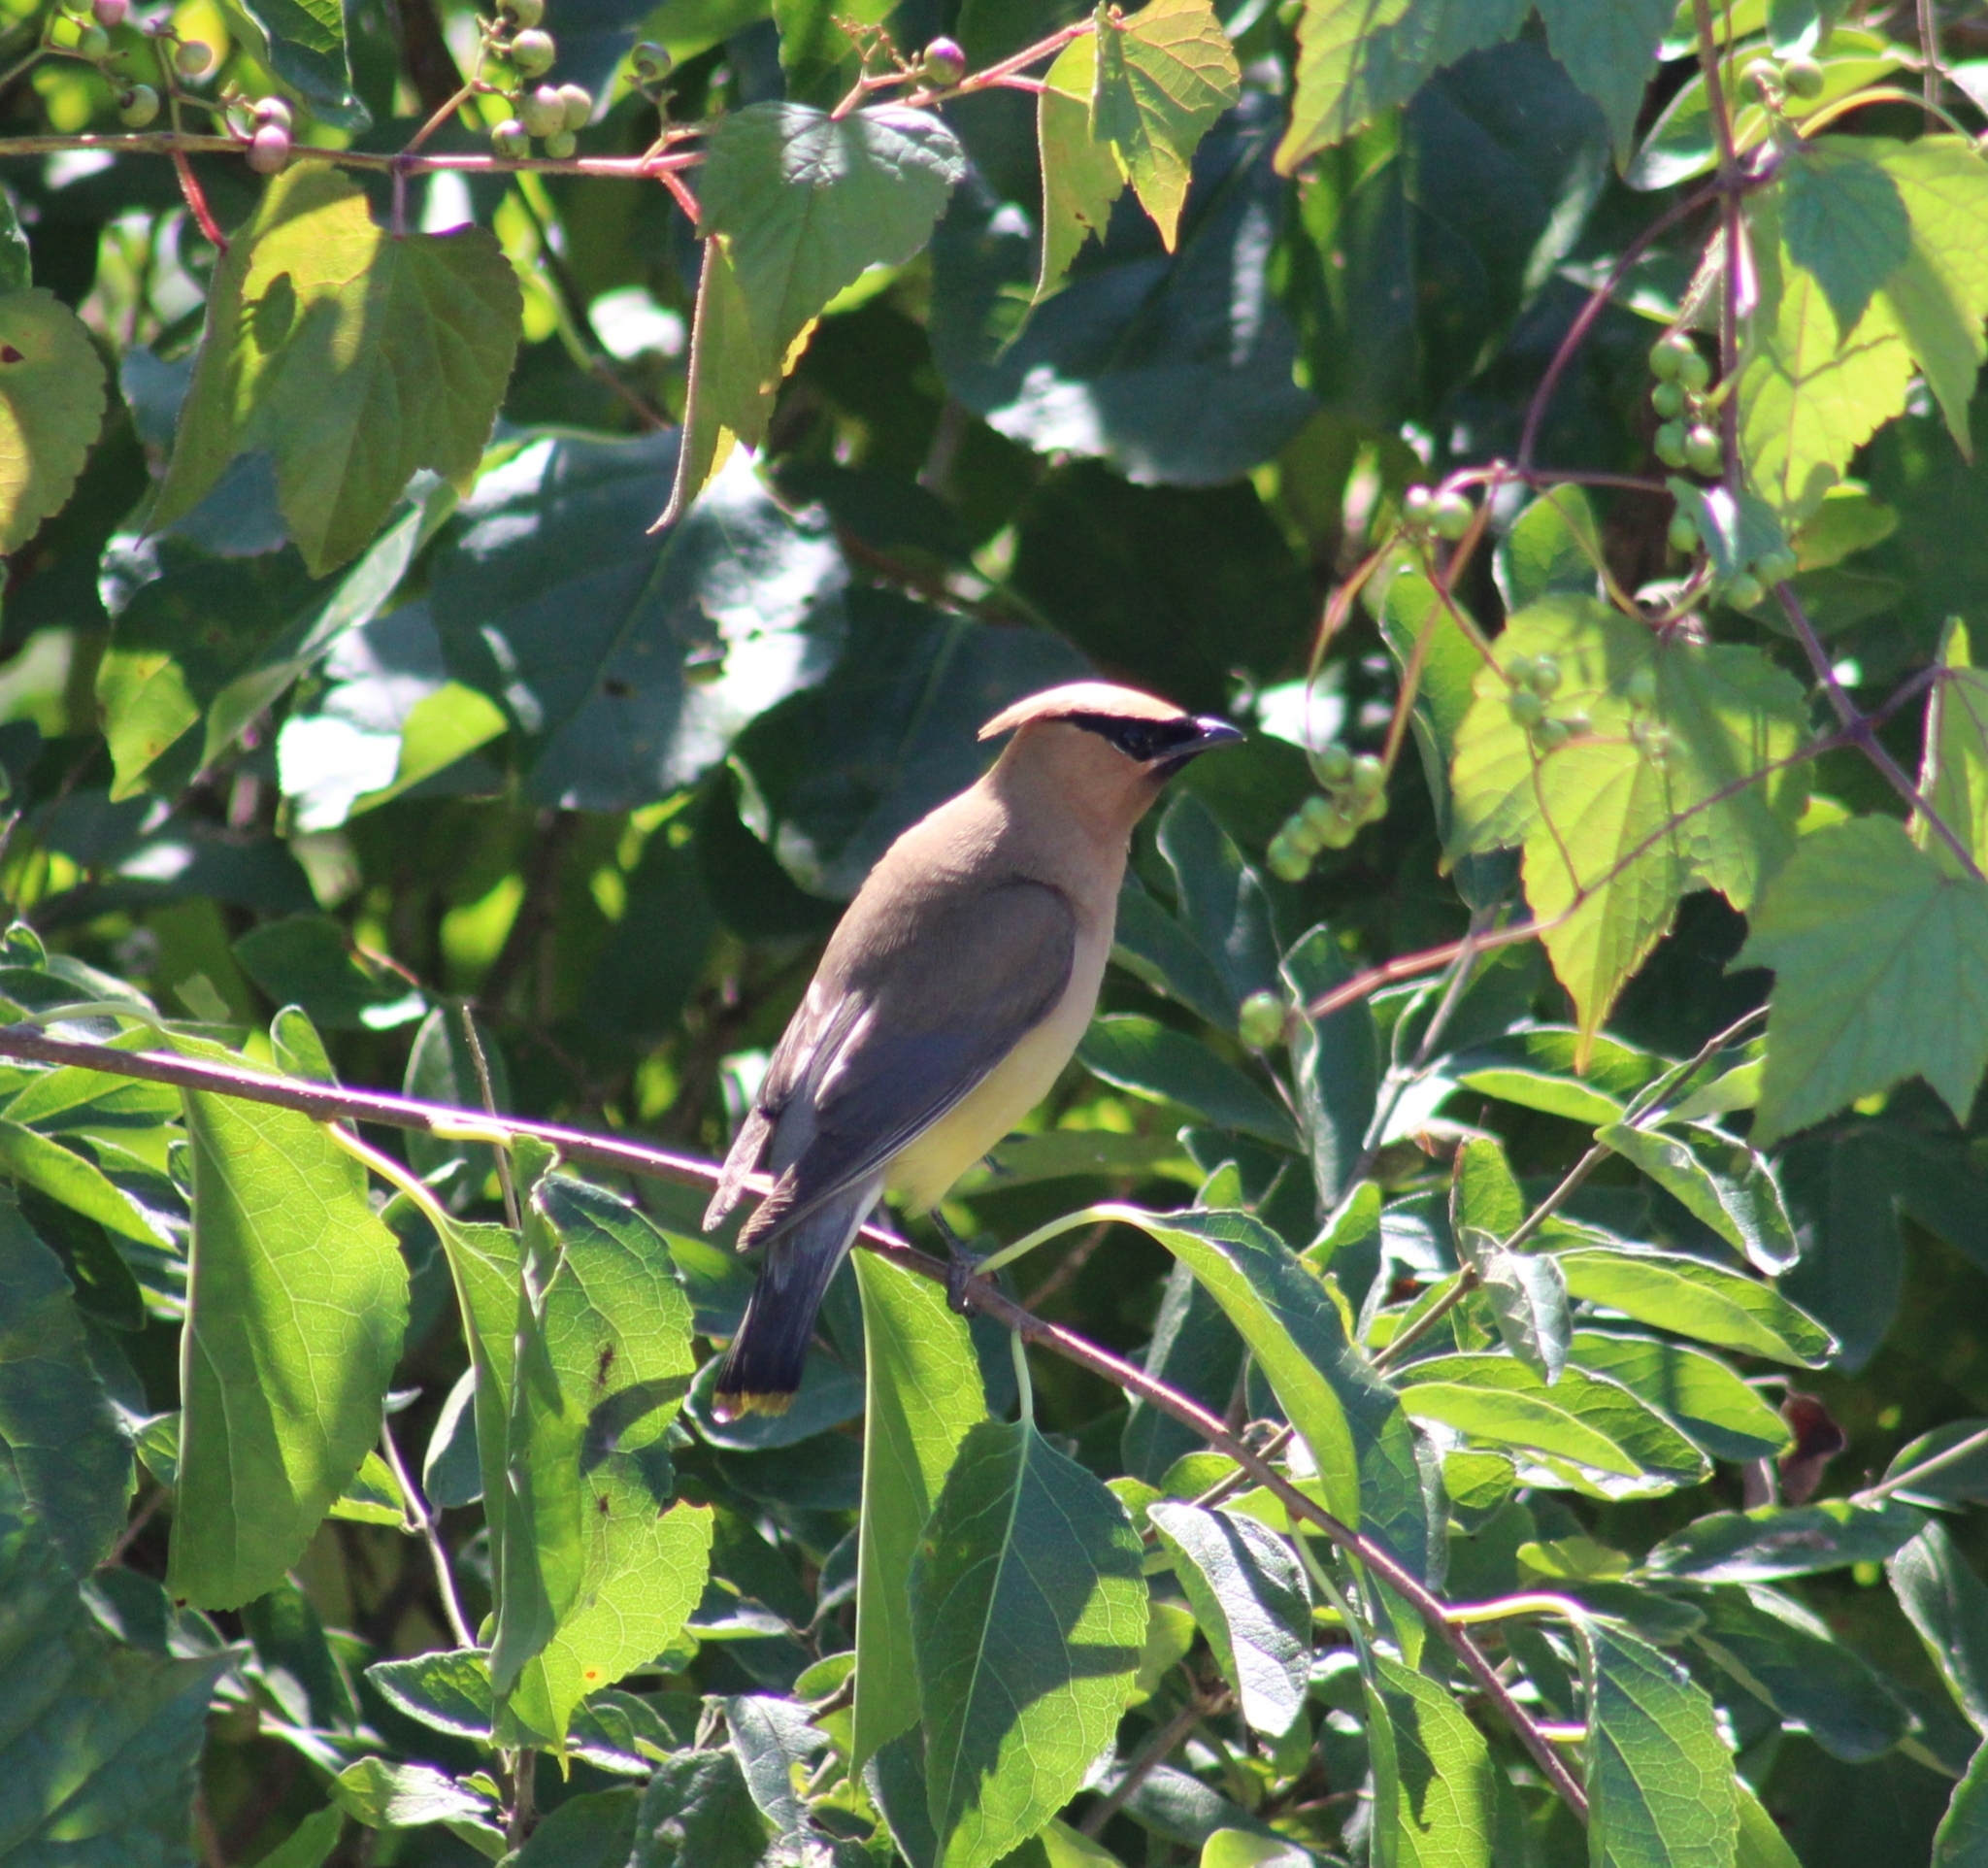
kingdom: Animalia
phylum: Chordata
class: Aves
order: Passeriformes
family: Bombycillidae
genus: Bombycilla
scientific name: Bombycilla cedrorum
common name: Cedar waxwing
